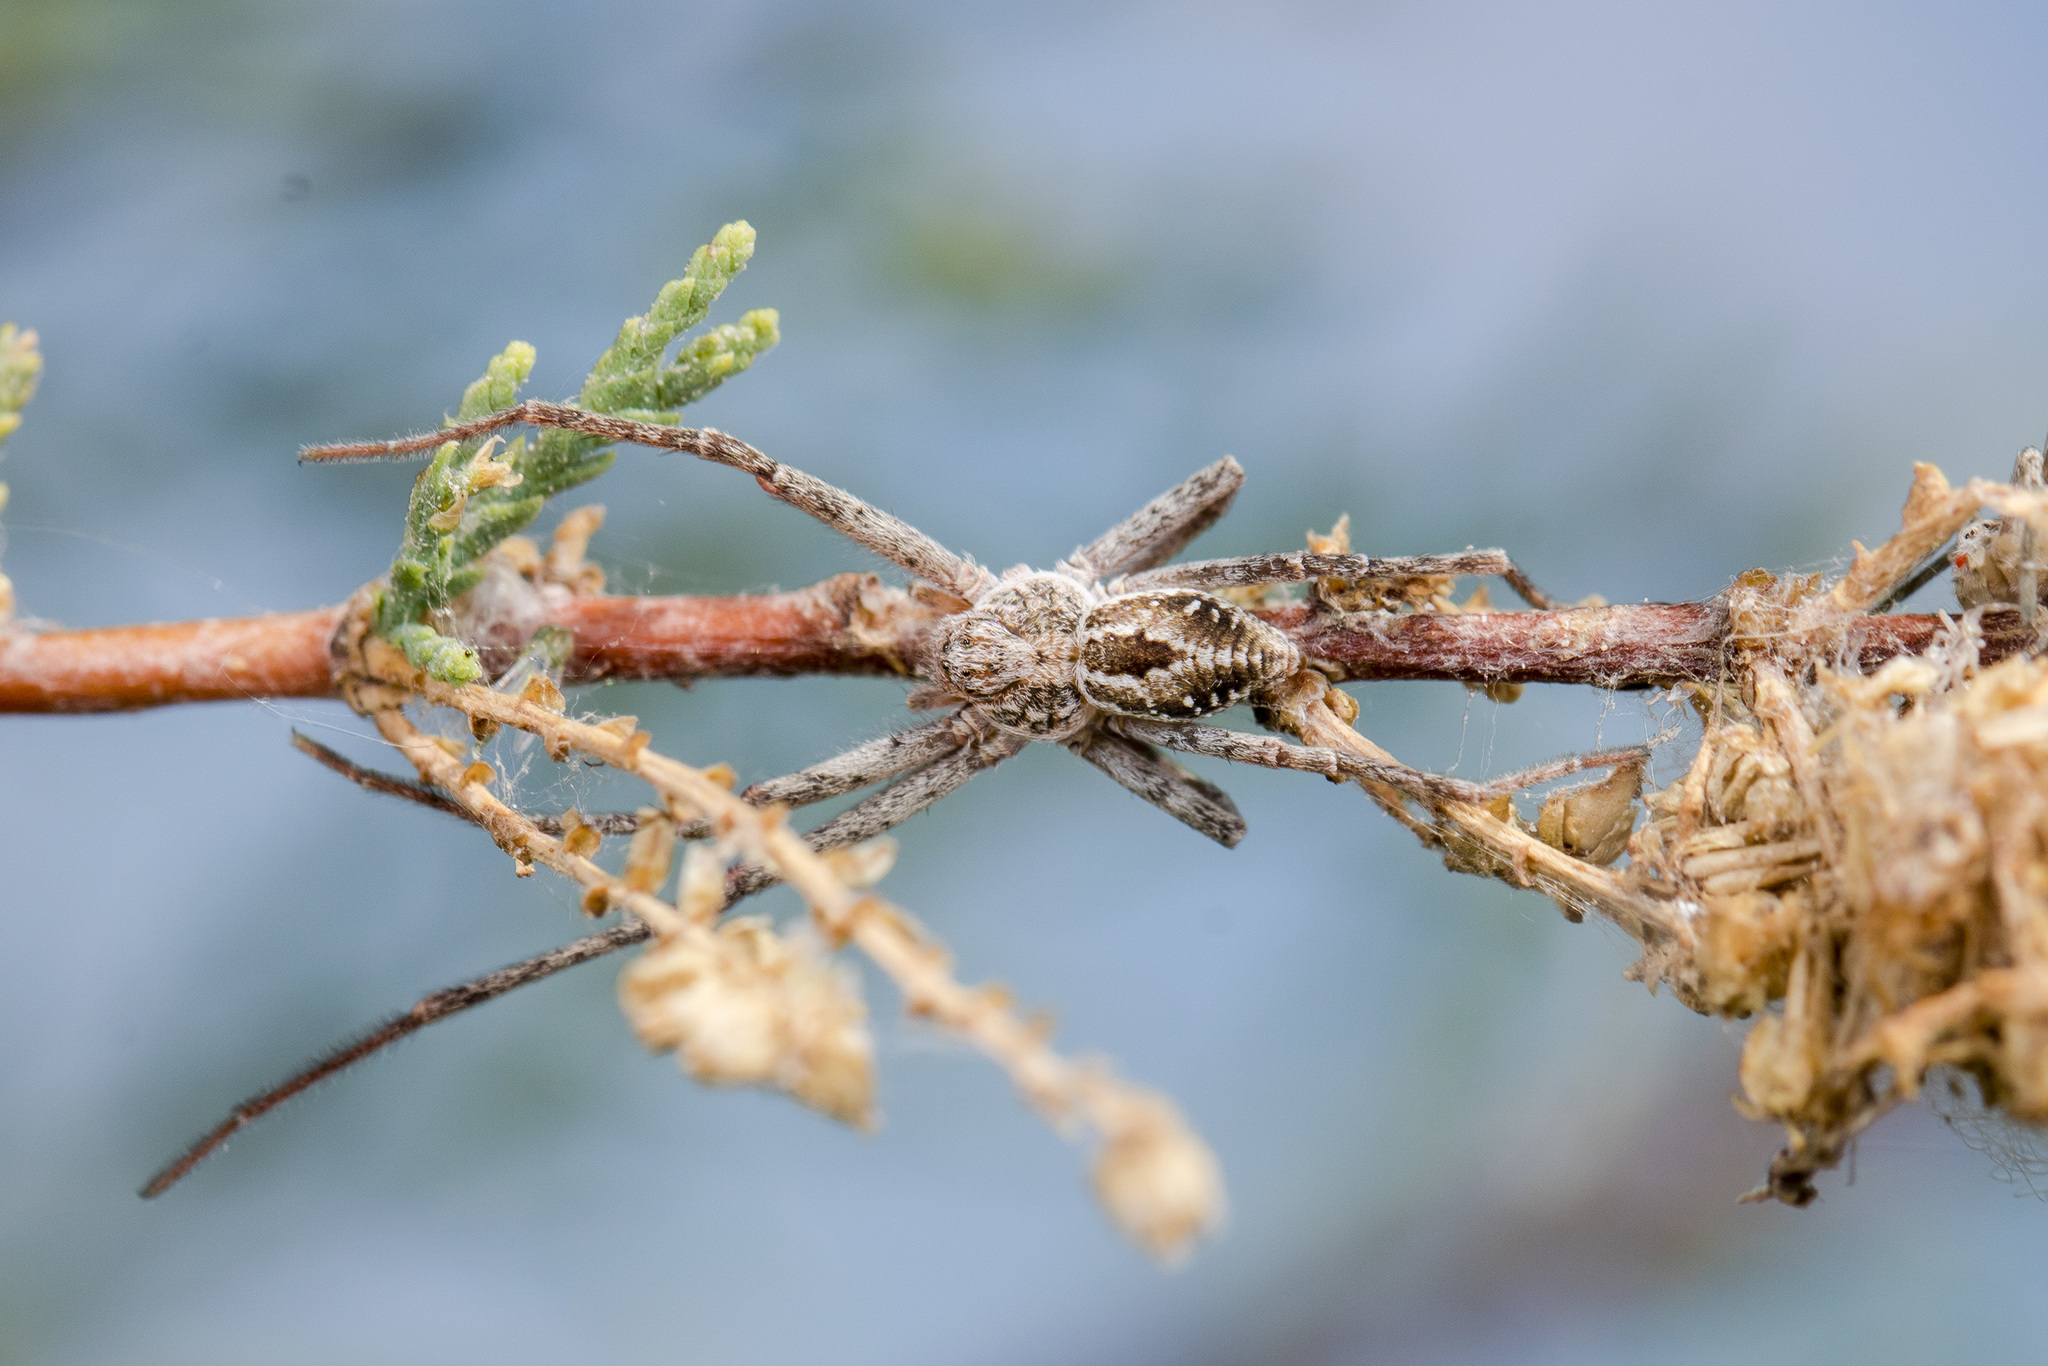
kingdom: Animalia
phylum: Arthropoda
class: Arachnida
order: Araneae
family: Philodromidae
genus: Rhysodromus
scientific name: Rhysodromus fallax
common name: Sand running-spider
